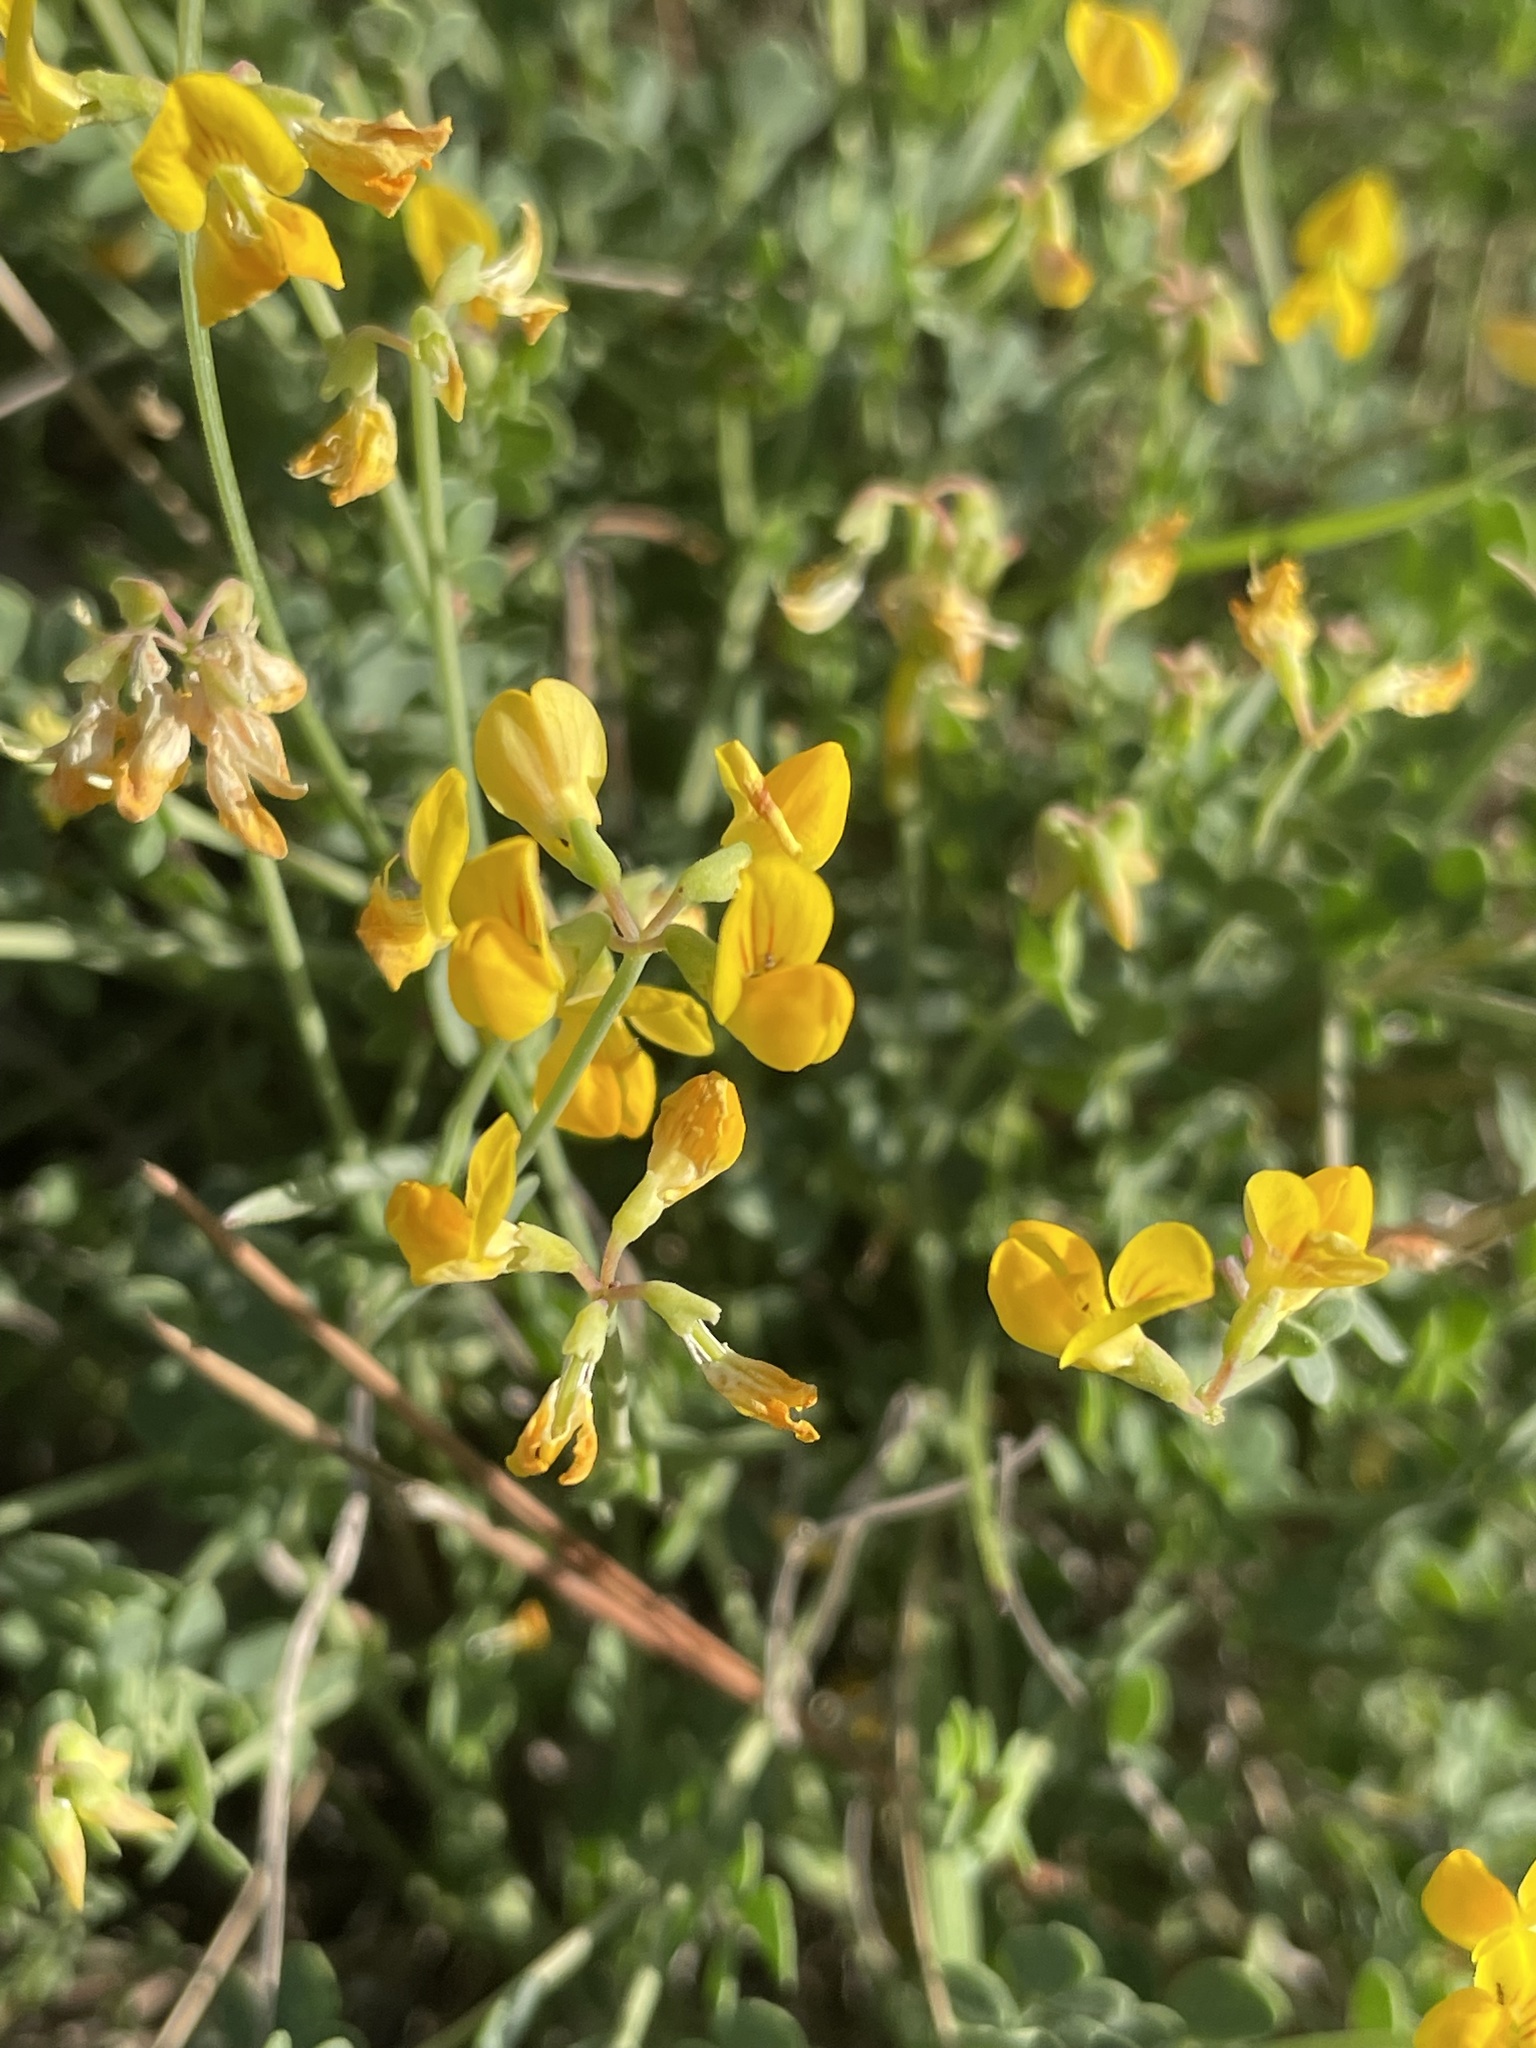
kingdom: Plantae
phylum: Tracheophyta
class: Magnoliopsida
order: Fabales
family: Fabaceae
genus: Coronilla
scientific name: Coronilla minima
